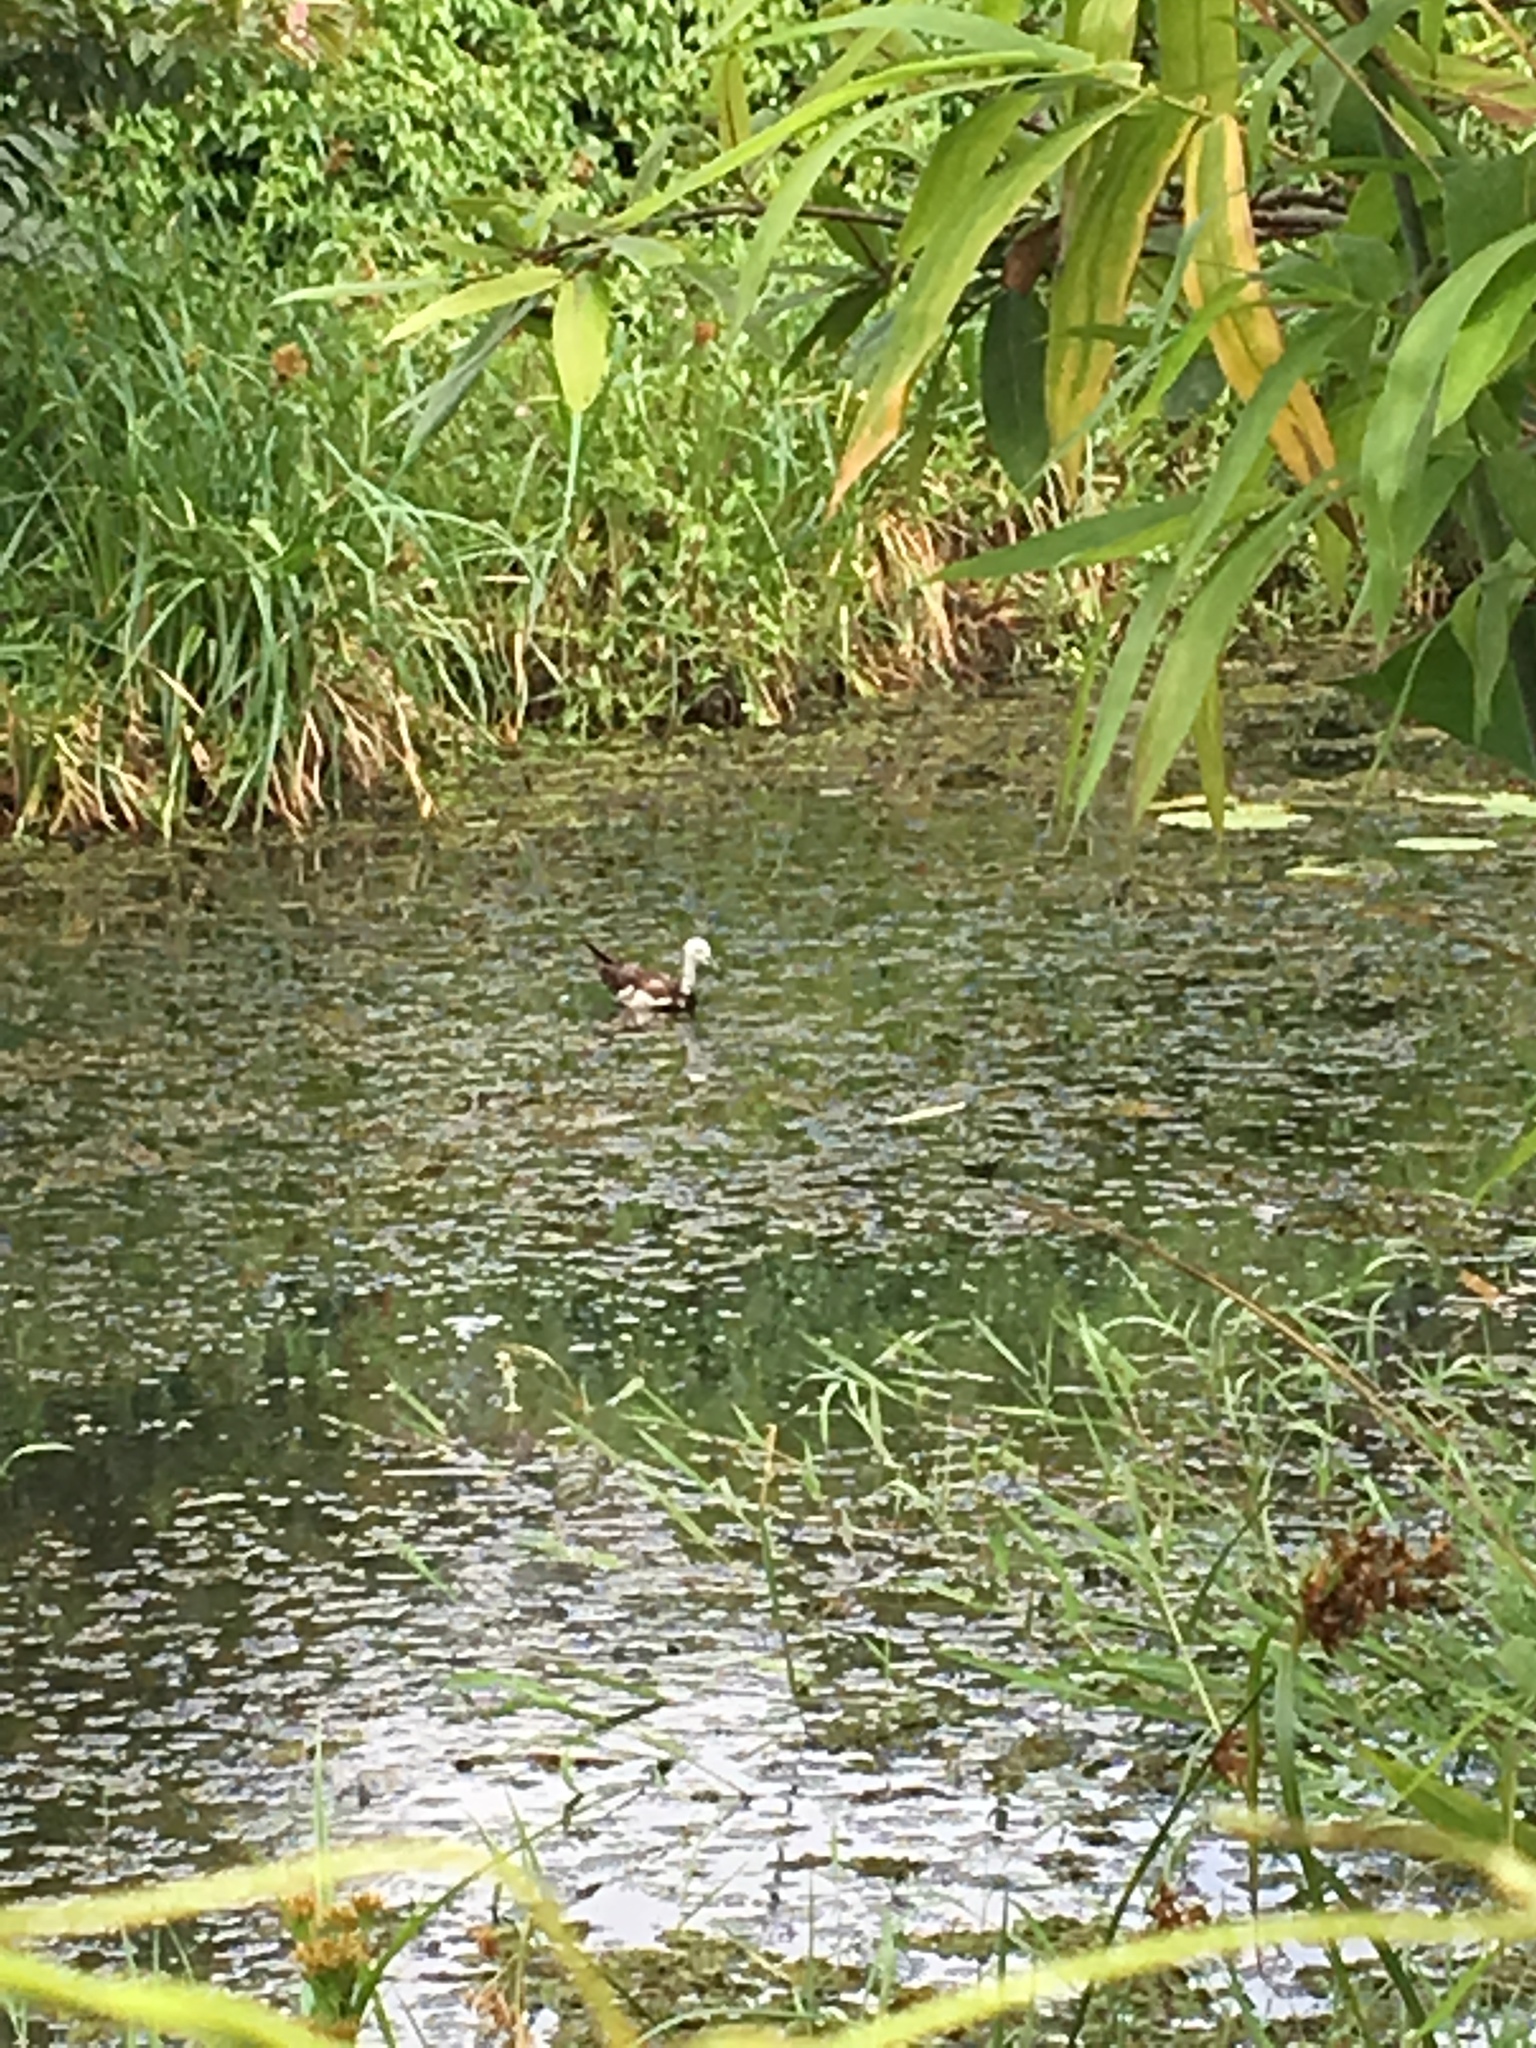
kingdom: Animalia
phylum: Chordata
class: Aves
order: Charadriiformes
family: Jacanidae
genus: Hydrophasianus
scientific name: Hydrophasianus chirurgus
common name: Pheasant-tailed jacana
